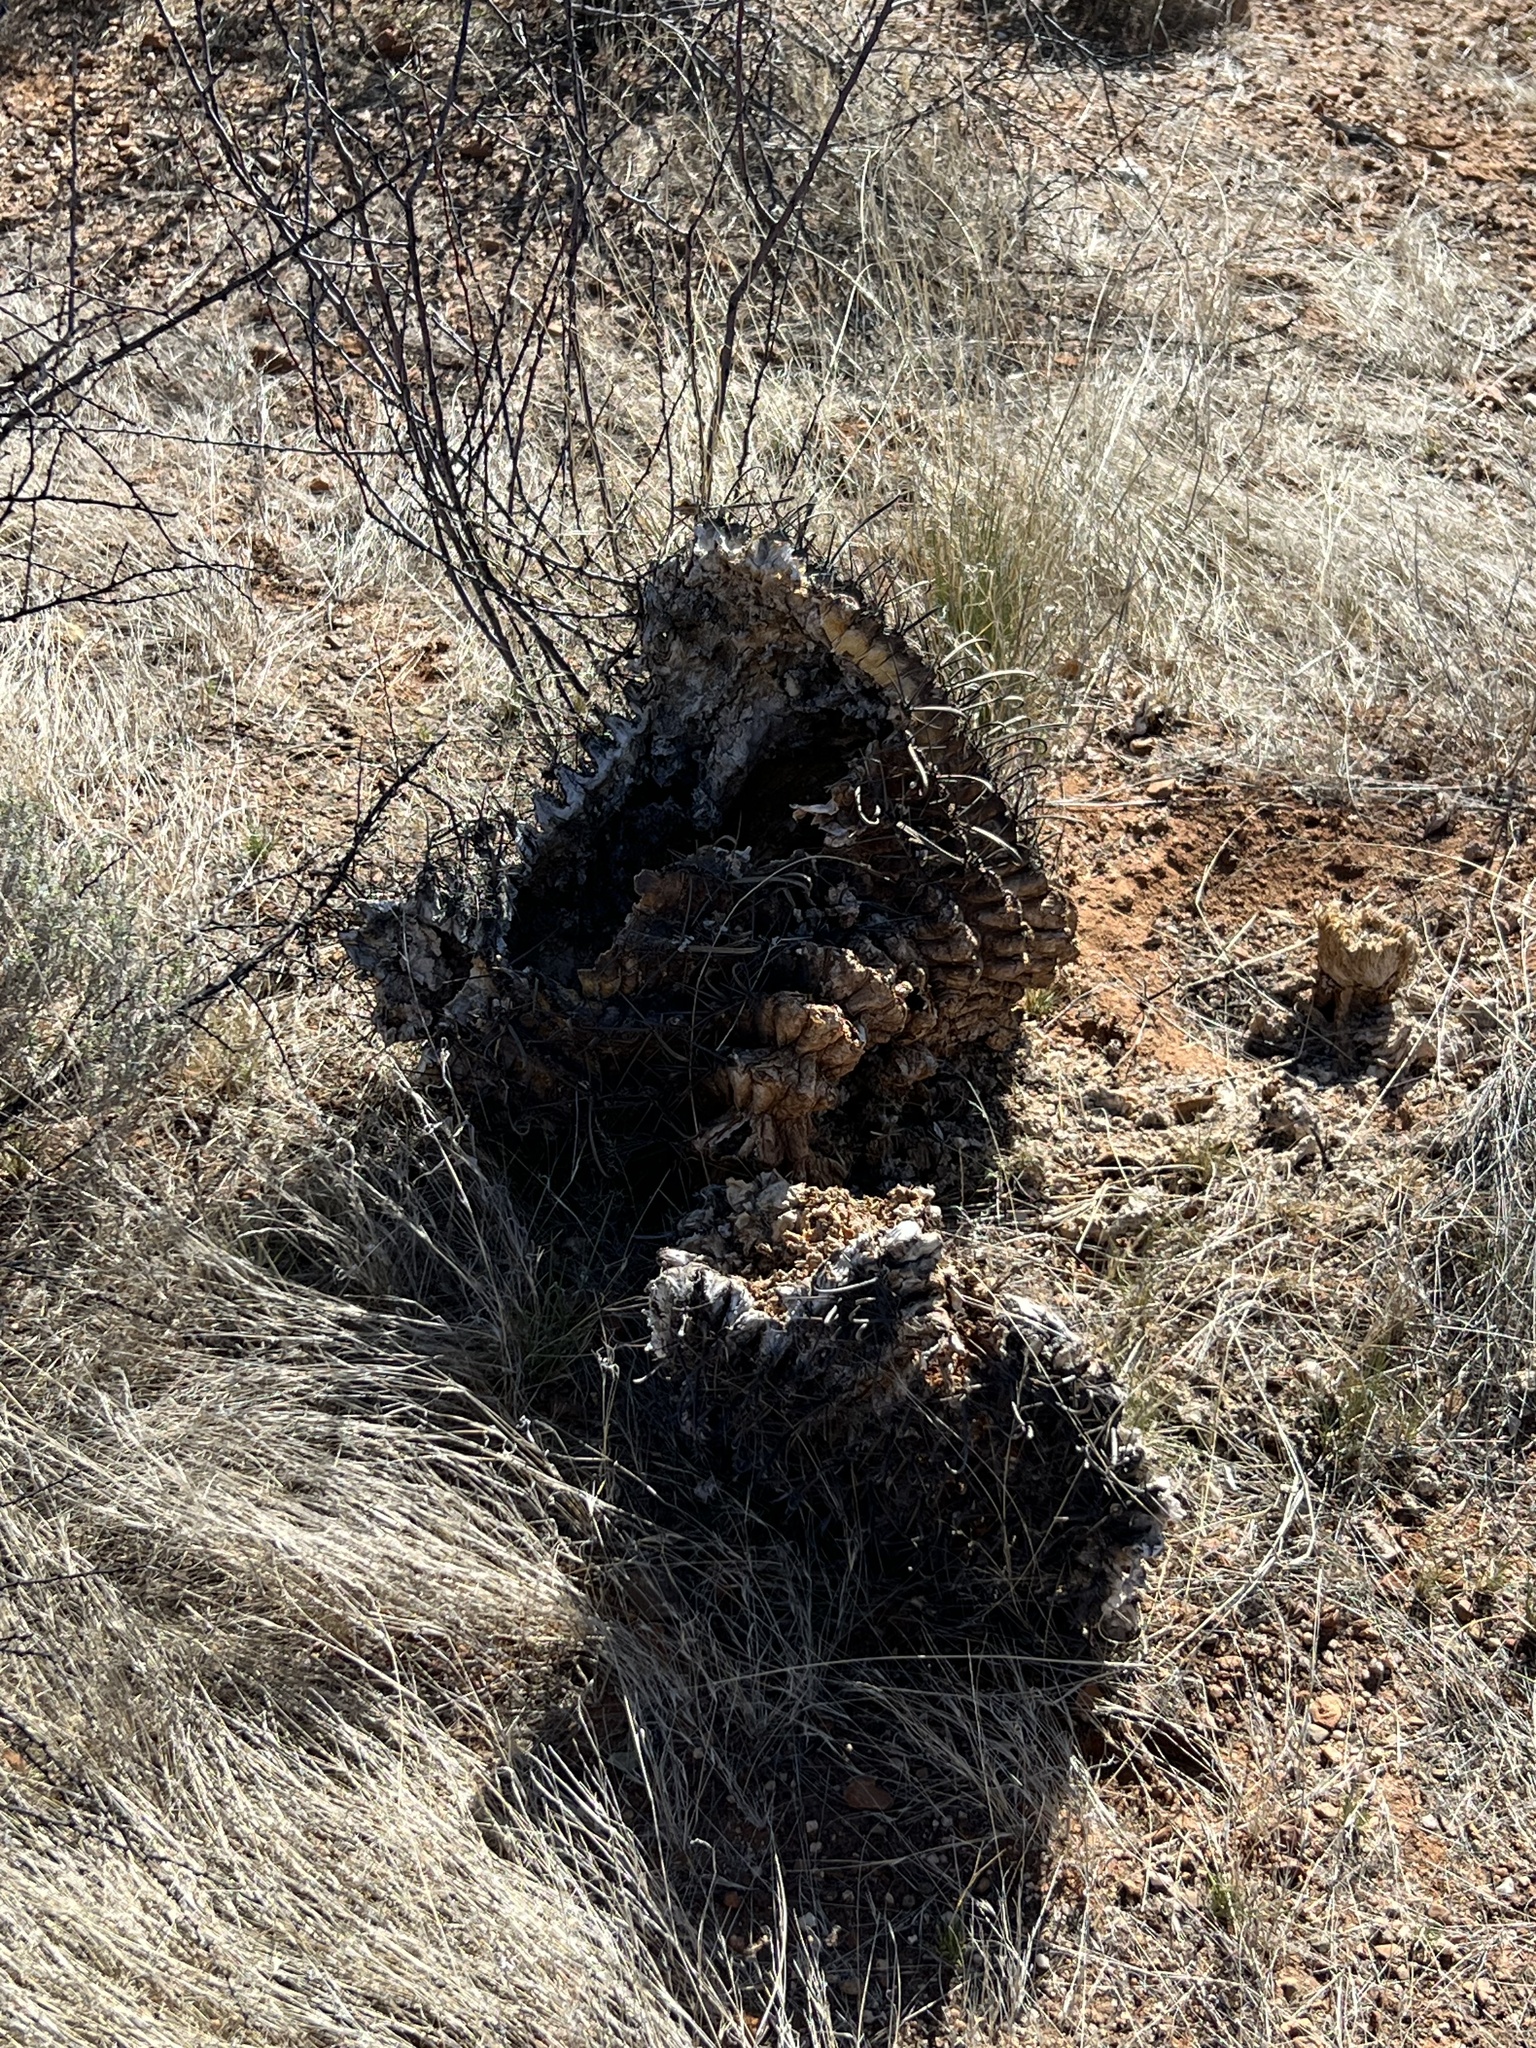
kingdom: Plantae
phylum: Tracheophyta
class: Magnoliopsida
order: Caryophyllales
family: Cactaceae
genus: Ferocactus
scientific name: Ferocactus wislizeni
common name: Candy barrel cactus
